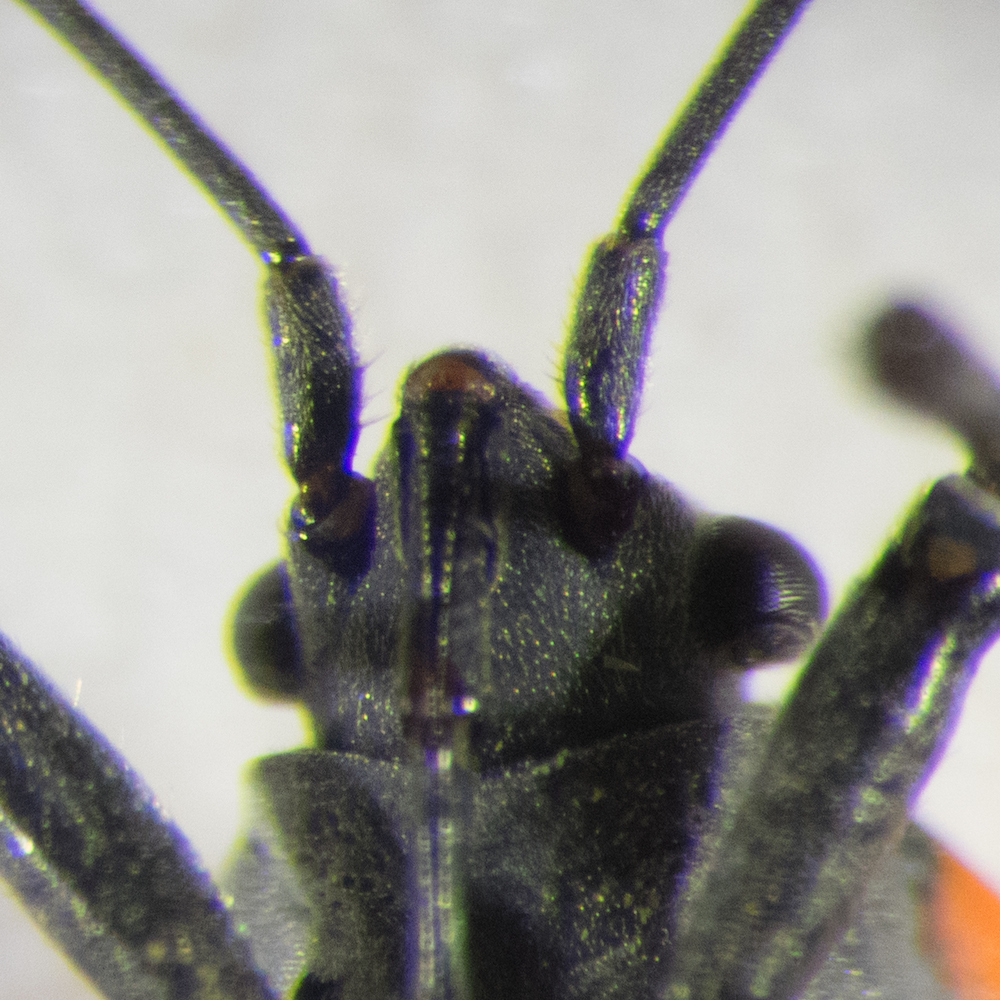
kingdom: Animalia
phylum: Arthropoda
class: Insecta
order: Hemiptera
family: Lygaeidae
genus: Lygaeus
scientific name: Lygaeus equestris
